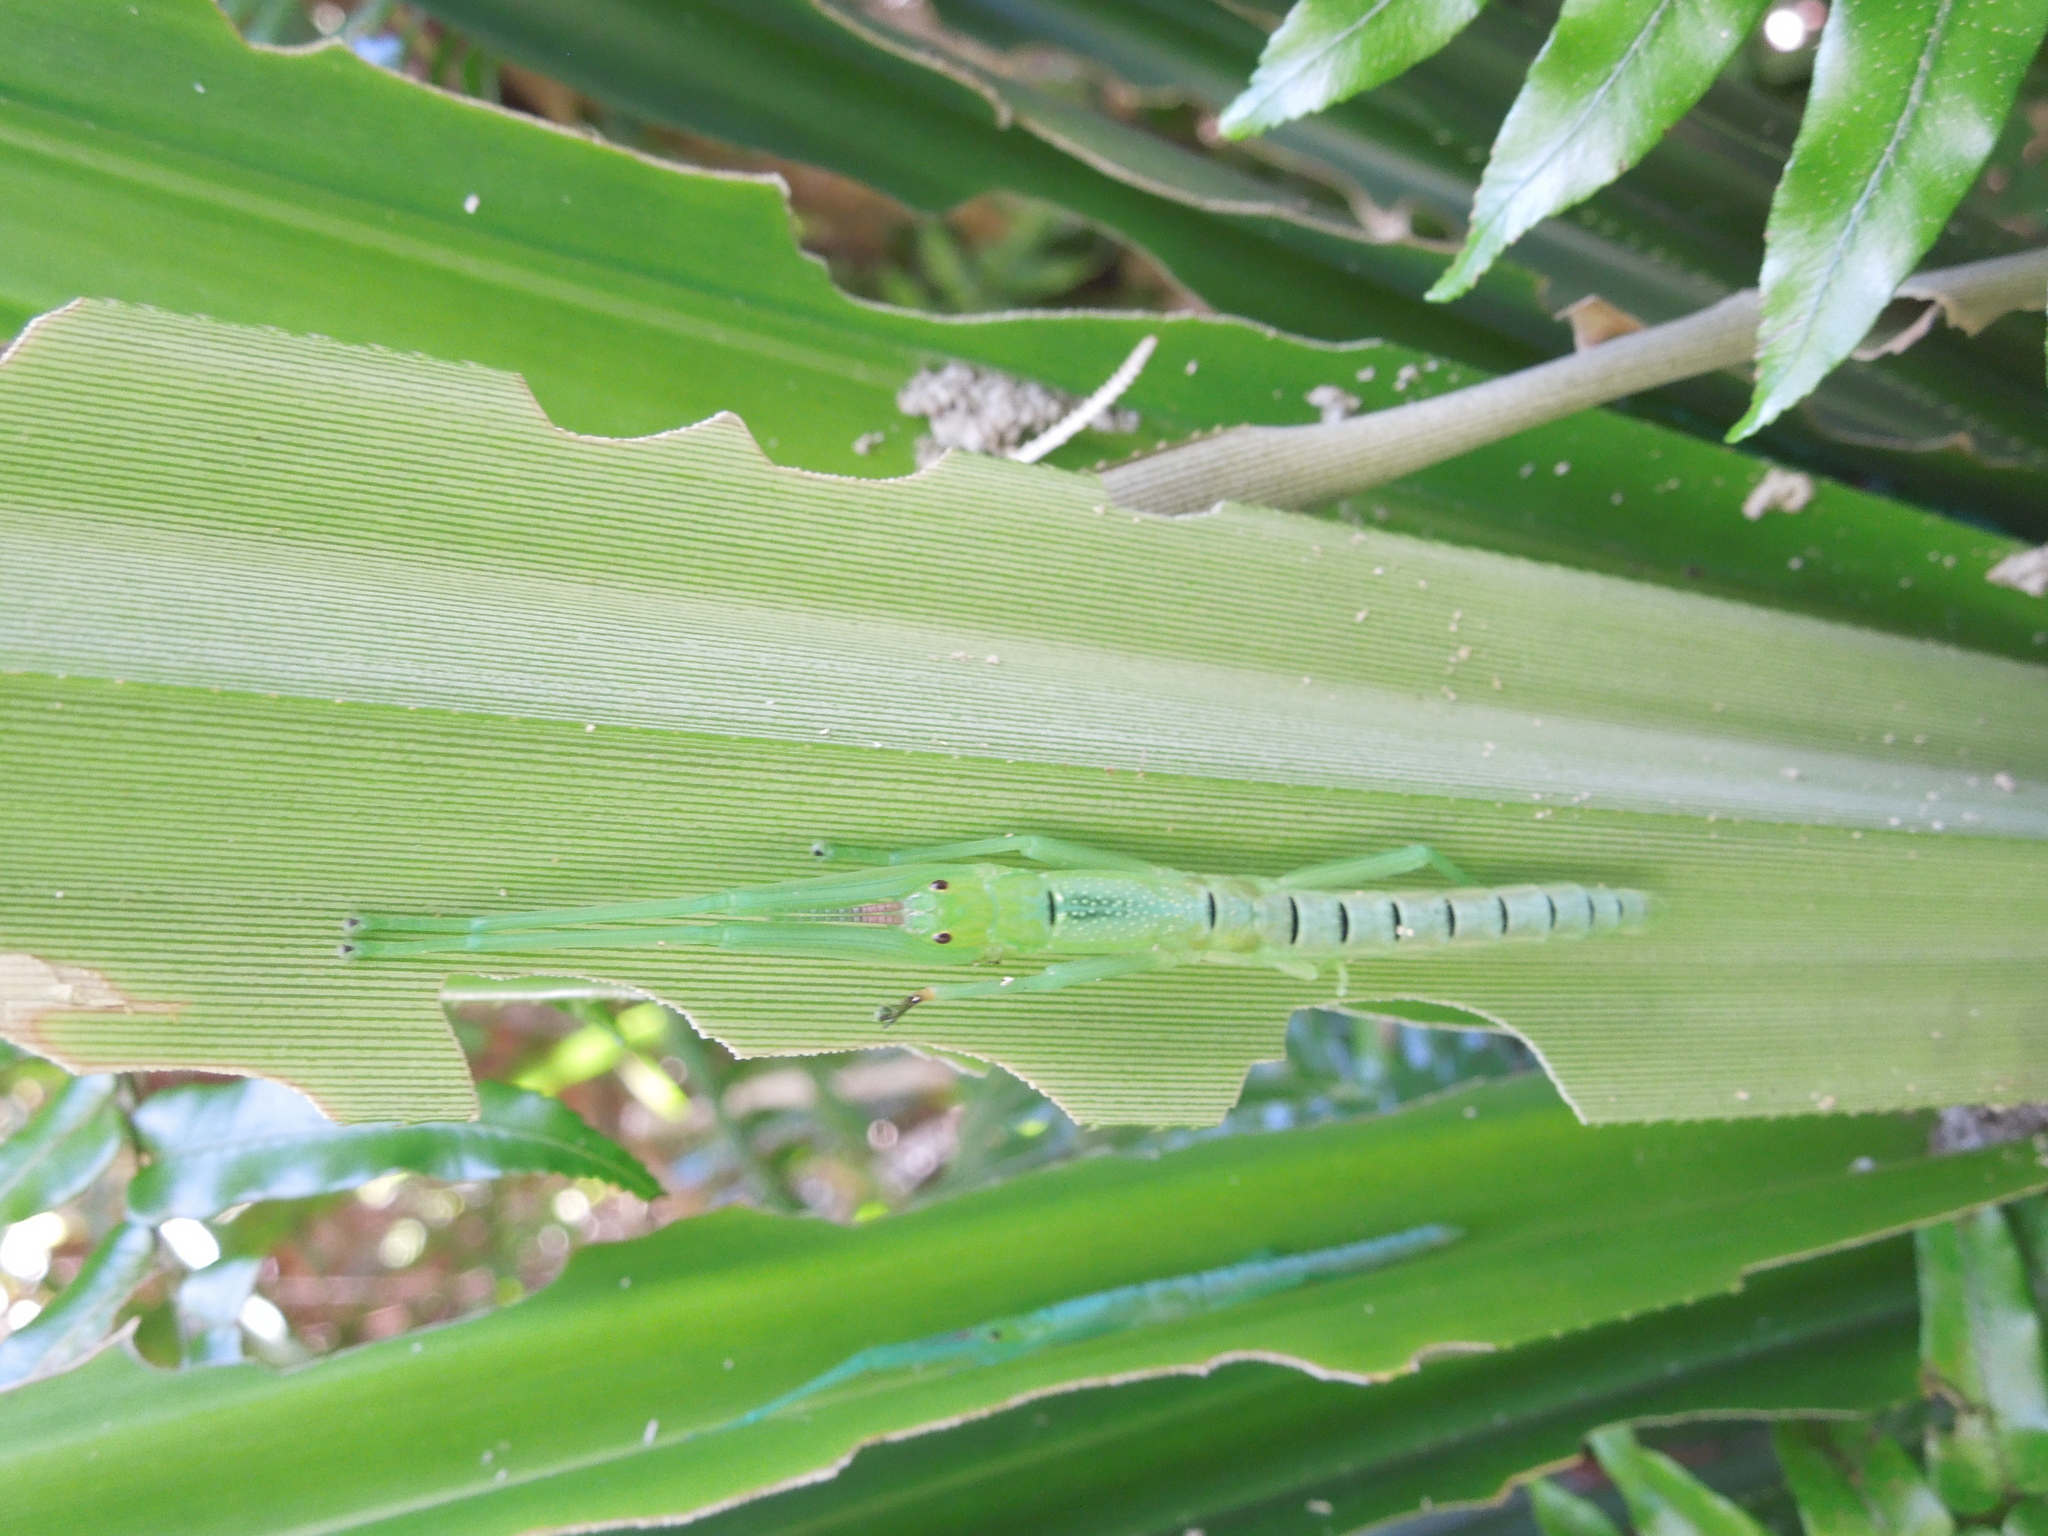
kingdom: Animalia
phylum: Arthropoda
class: Insecta
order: Phasmida
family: Phasmatidae
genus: Megacrania
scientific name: Megacrania batesii
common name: Peppermint stick-insect
